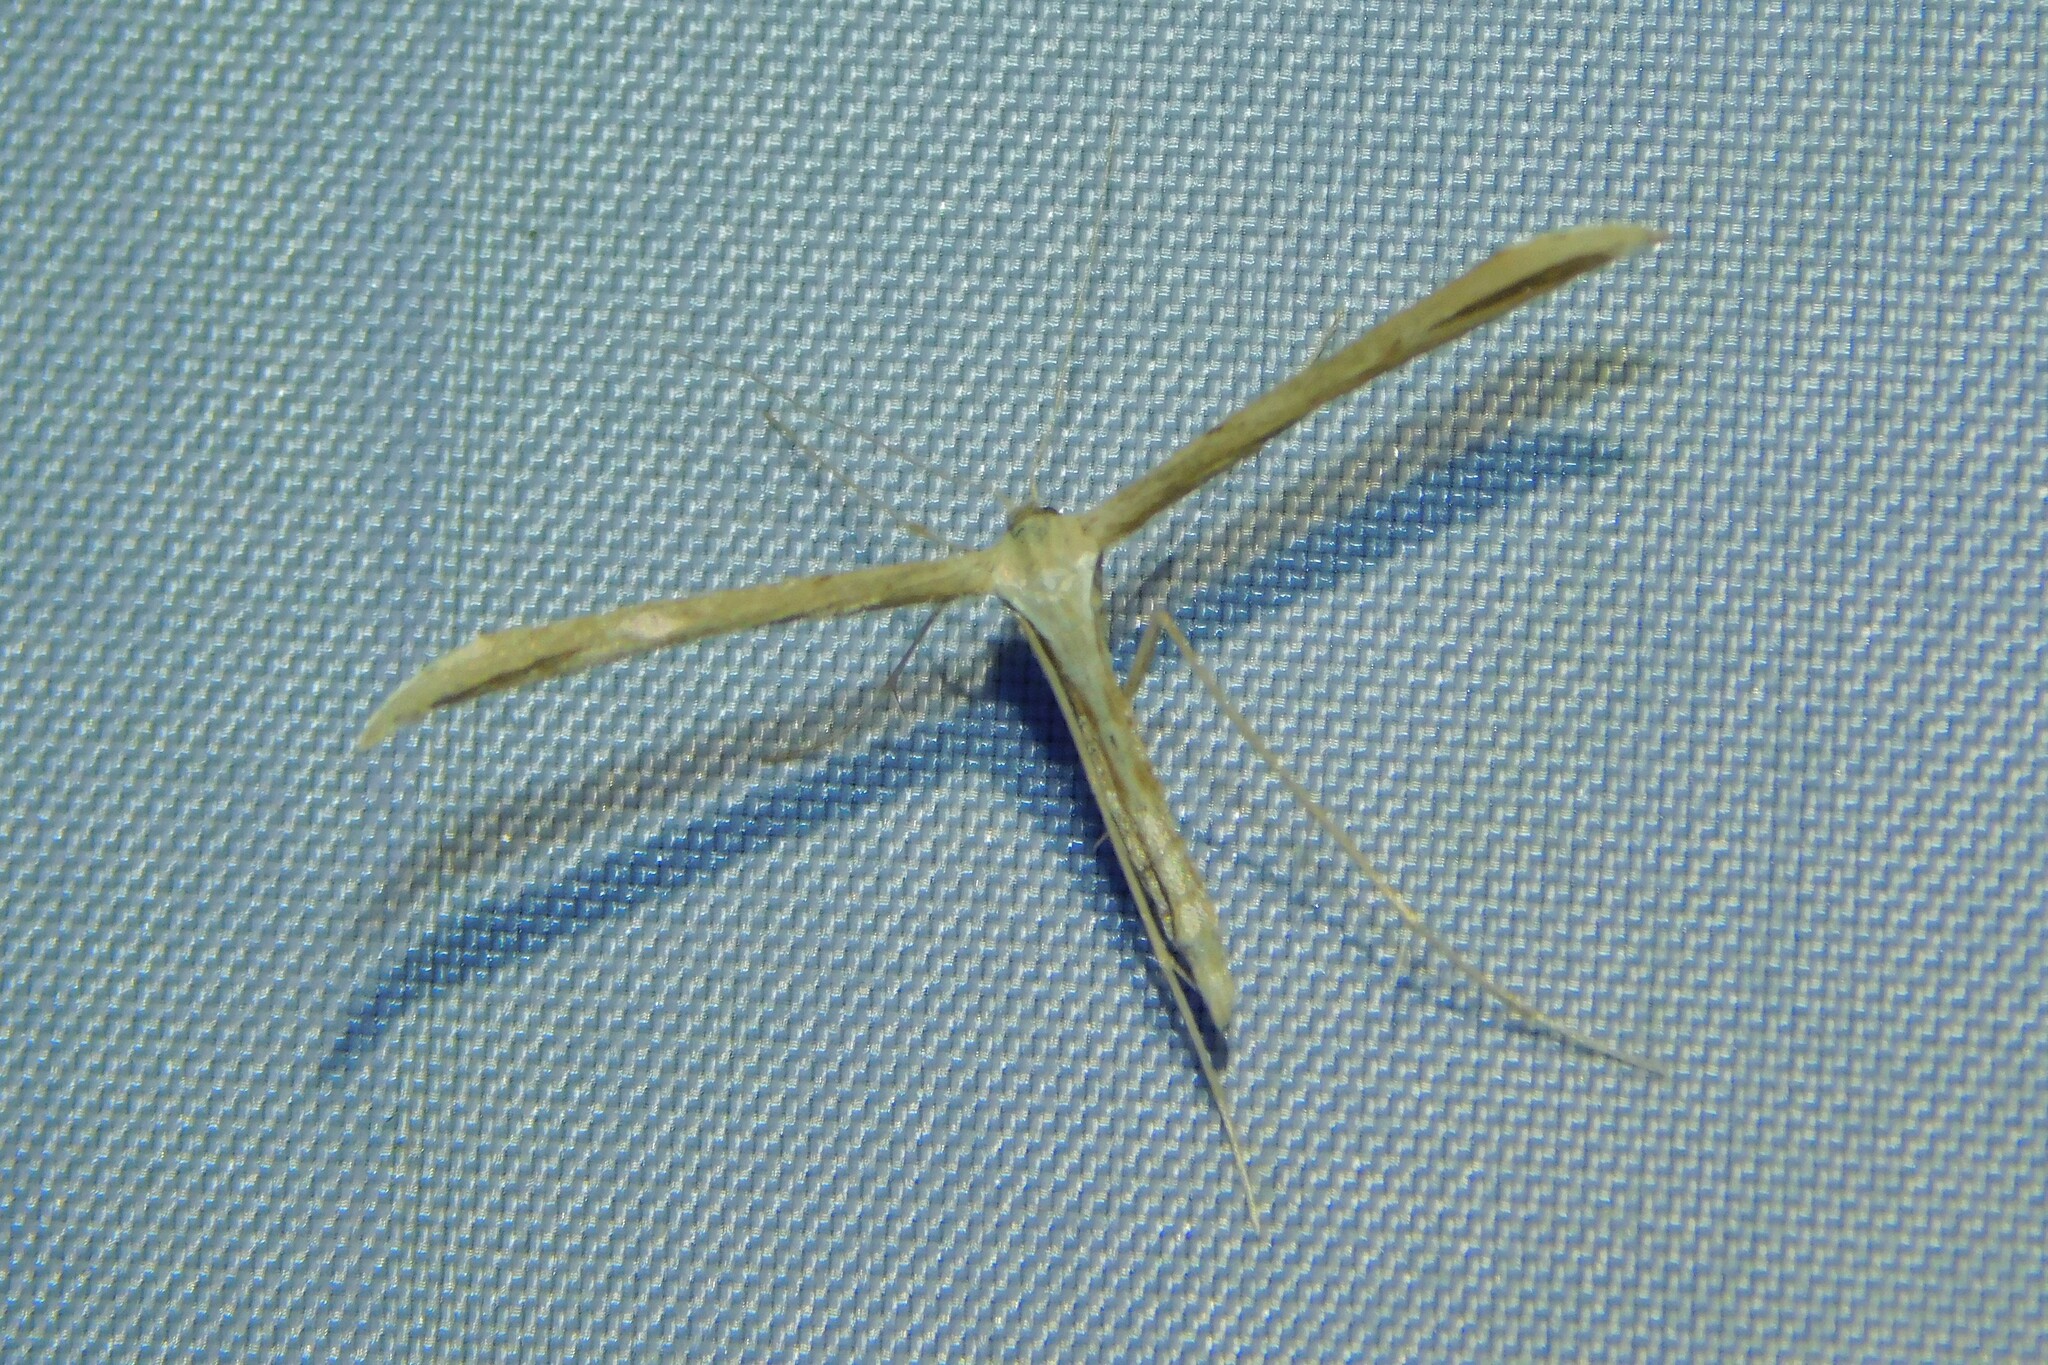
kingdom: Animalia
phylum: Arthropoda
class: Insecta
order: Lepidoptera
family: Pterophoridae
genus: Emmelina
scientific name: Emmelina monodactyla
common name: Common plume
